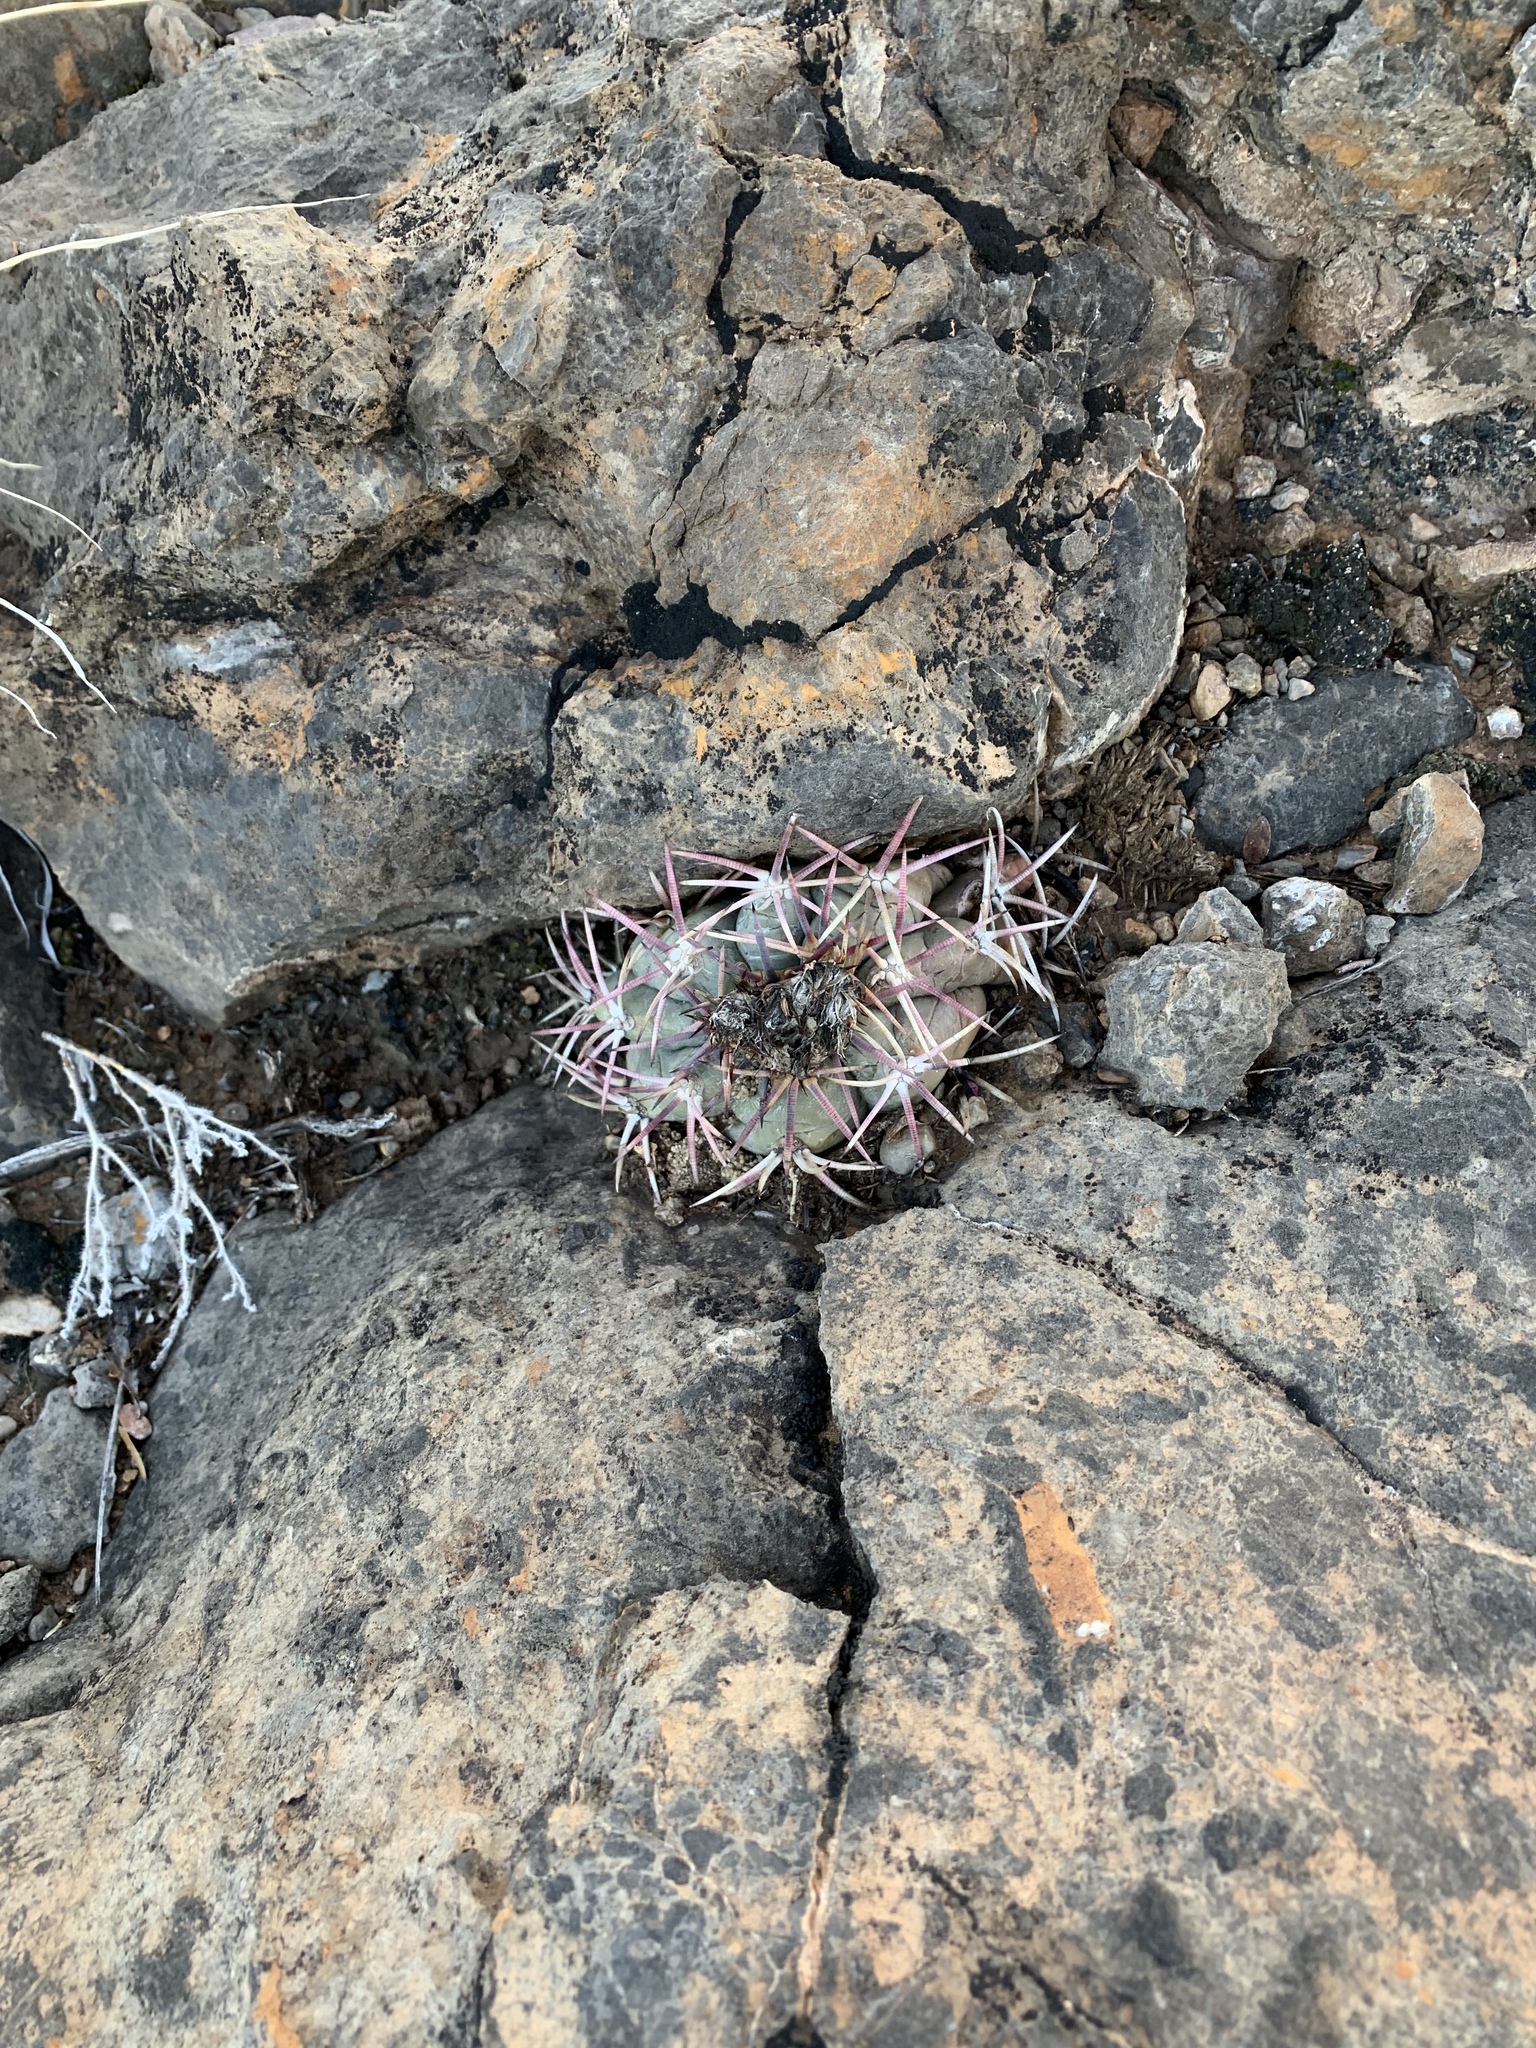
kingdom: Plantae
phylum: Tracheophyta
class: Magnoliopsida
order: Caryophyllales
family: Cactaceae
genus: Echinocactus
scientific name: Echinocactus horizonthalonius
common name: Devilshead
